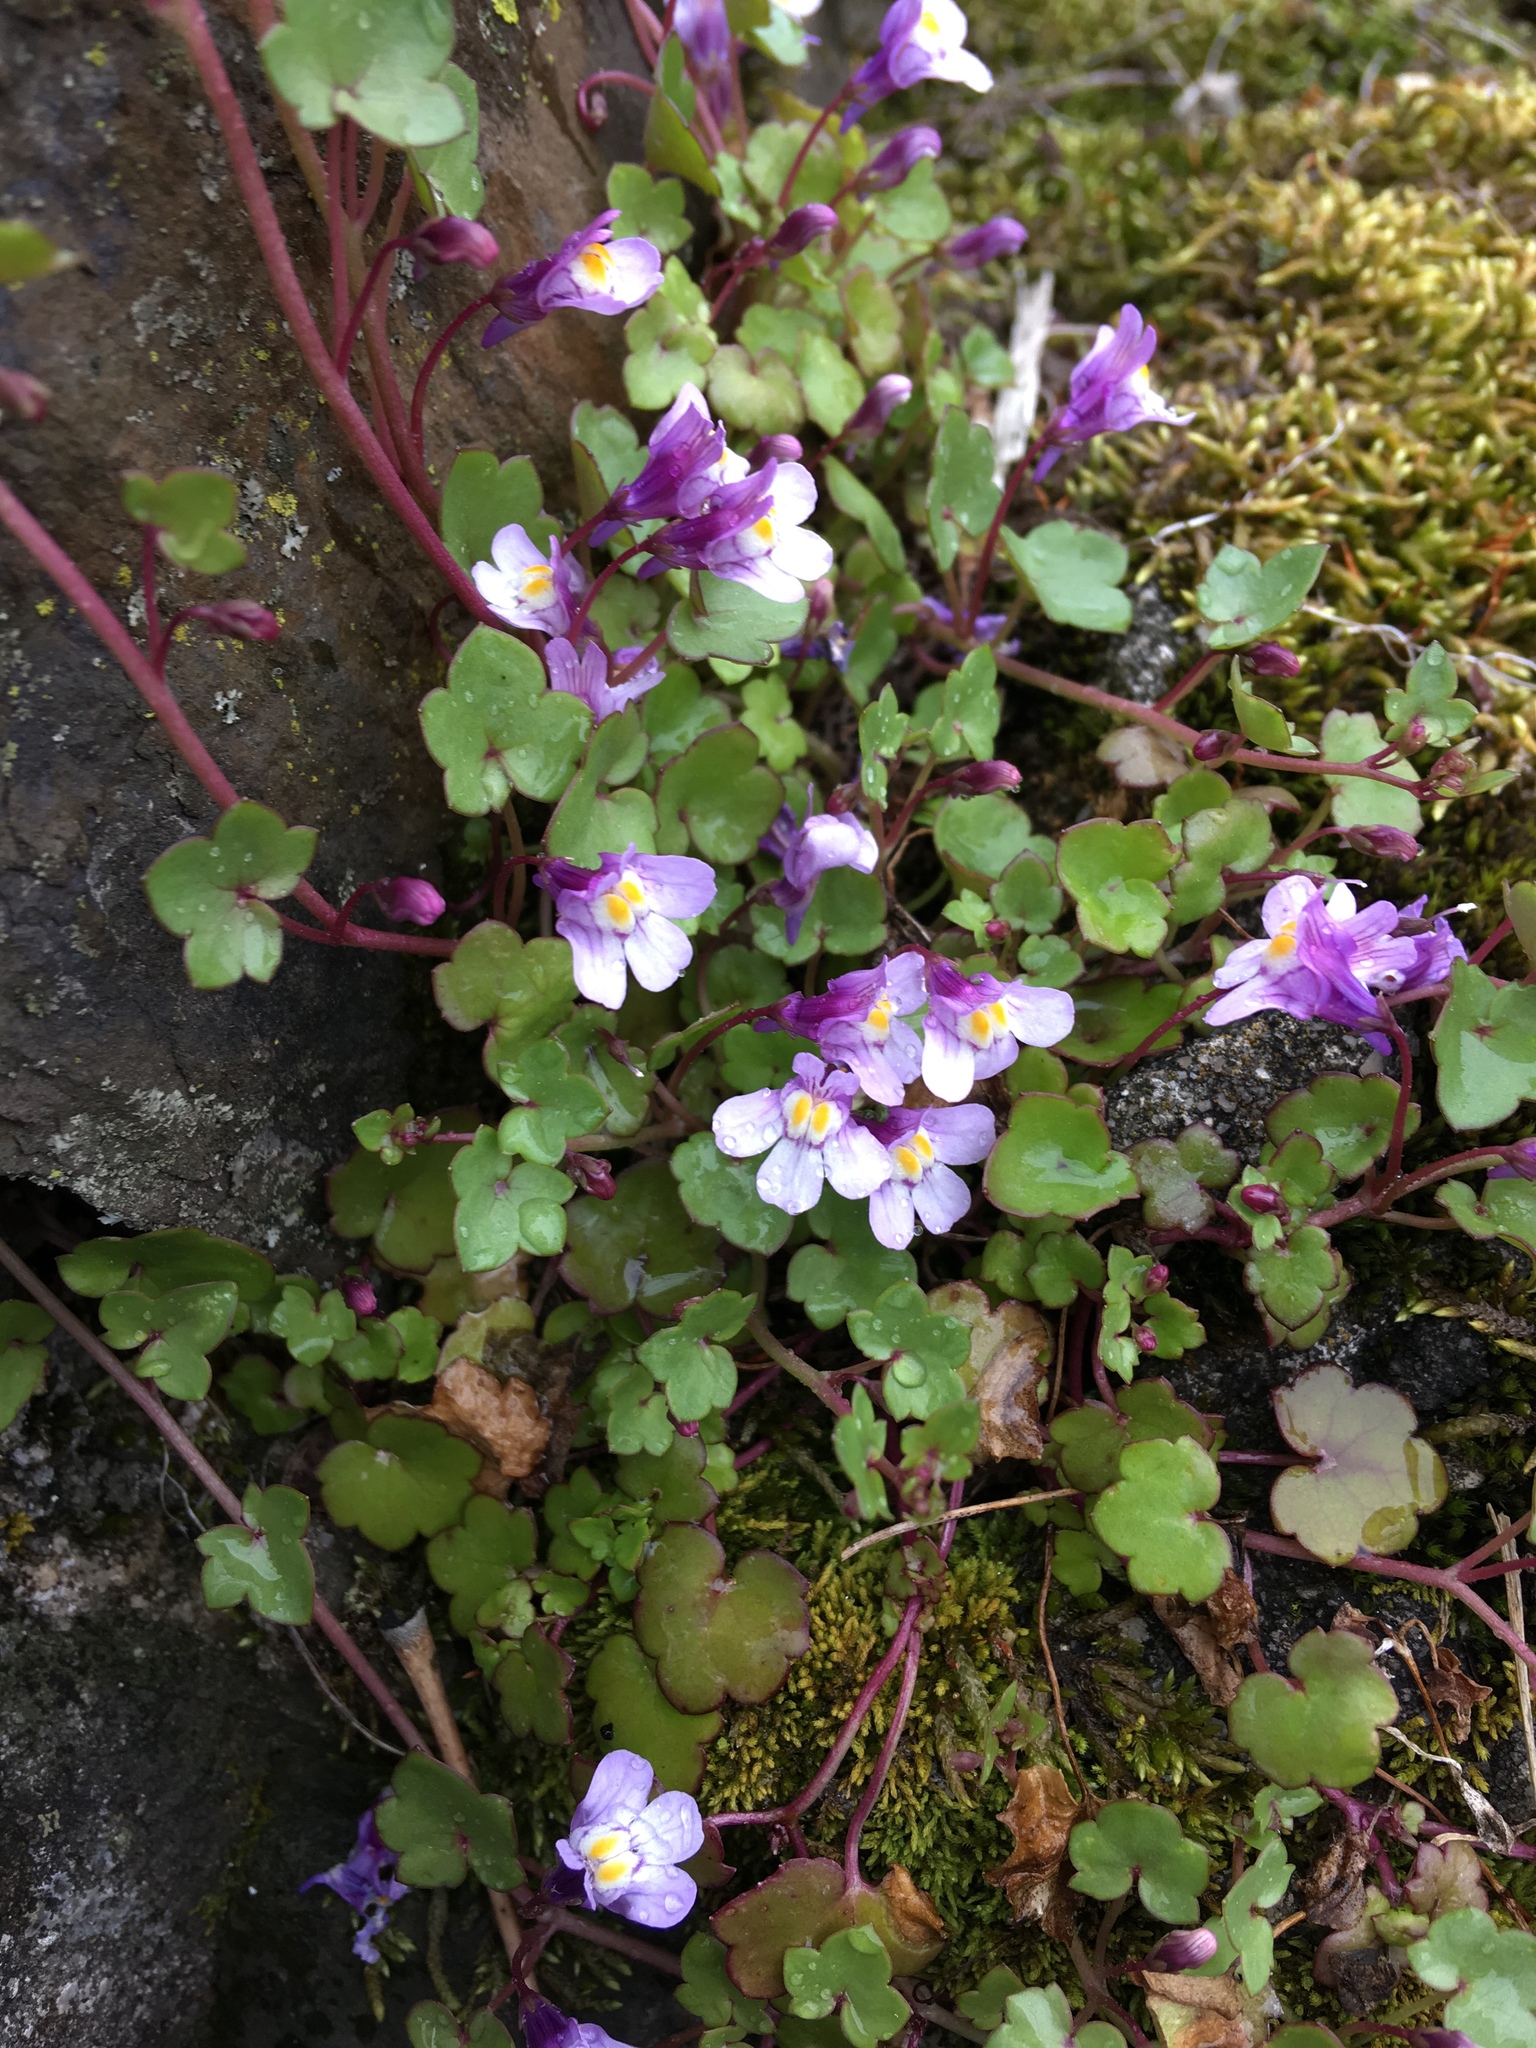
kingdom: Plantae
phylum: Tracheophyta
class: Magnoliopsida
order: Lamiales
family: Plantaginaceae
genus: Cymbalaria
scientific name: Cymbalaria muralis
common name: Ivy-leaved toadflax
